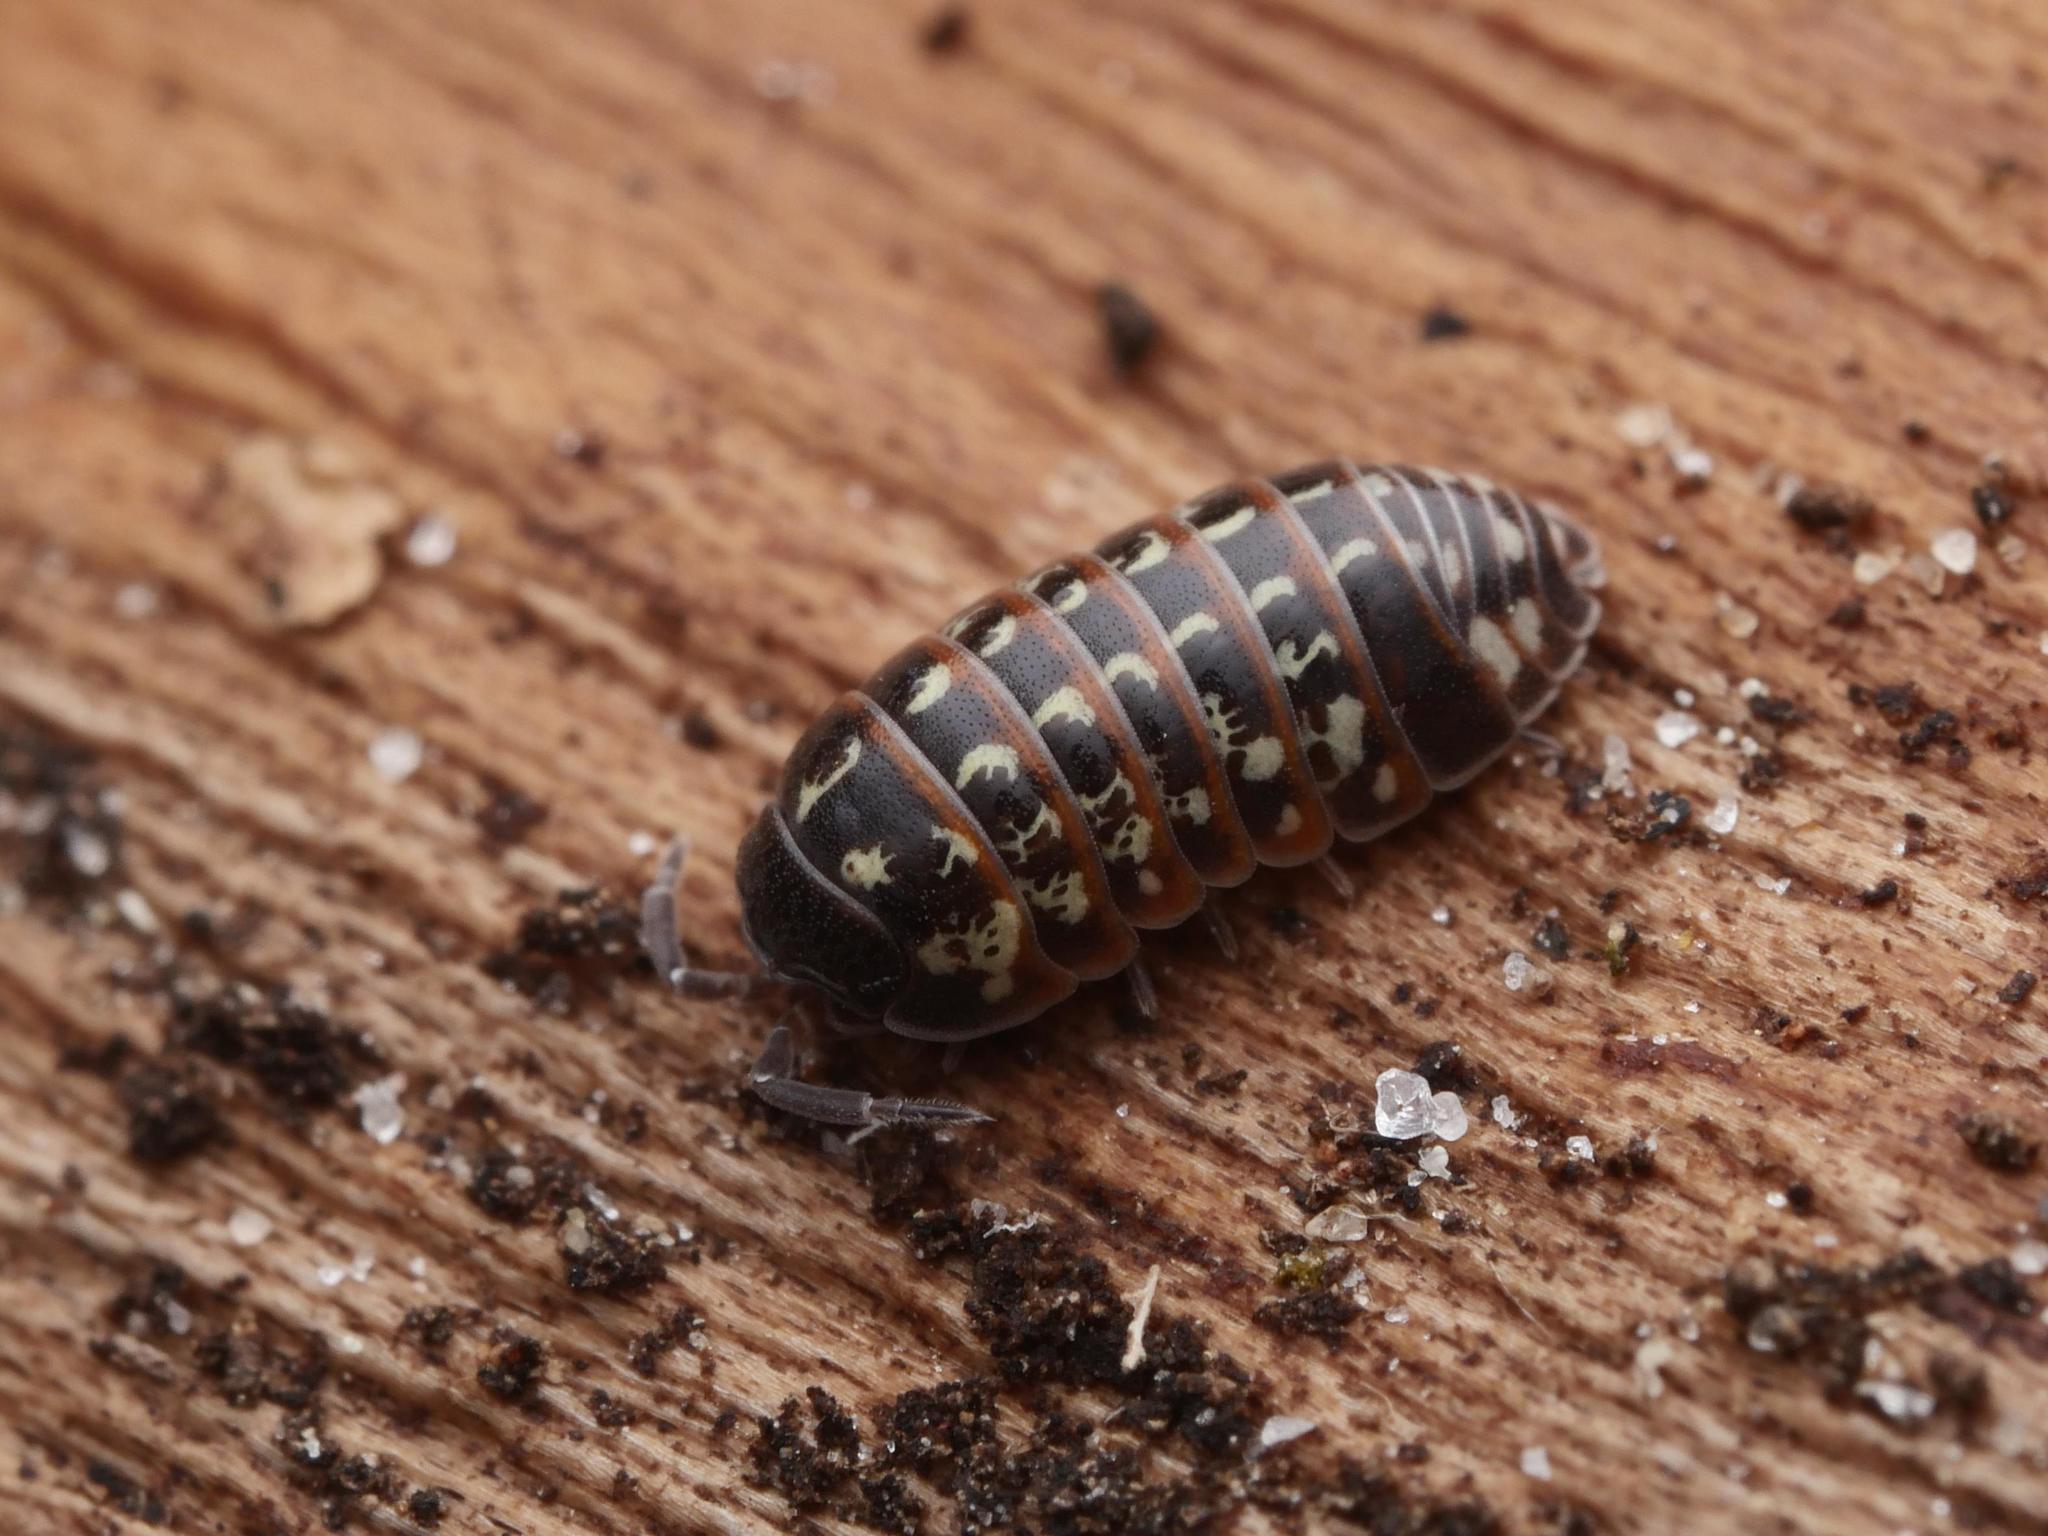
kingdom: Animalia
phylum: Arthropoda
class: Malacostraca
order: Isopoda
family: Armadillidiidae
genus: Armadillidium
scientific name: Armadillidium pulchellum
